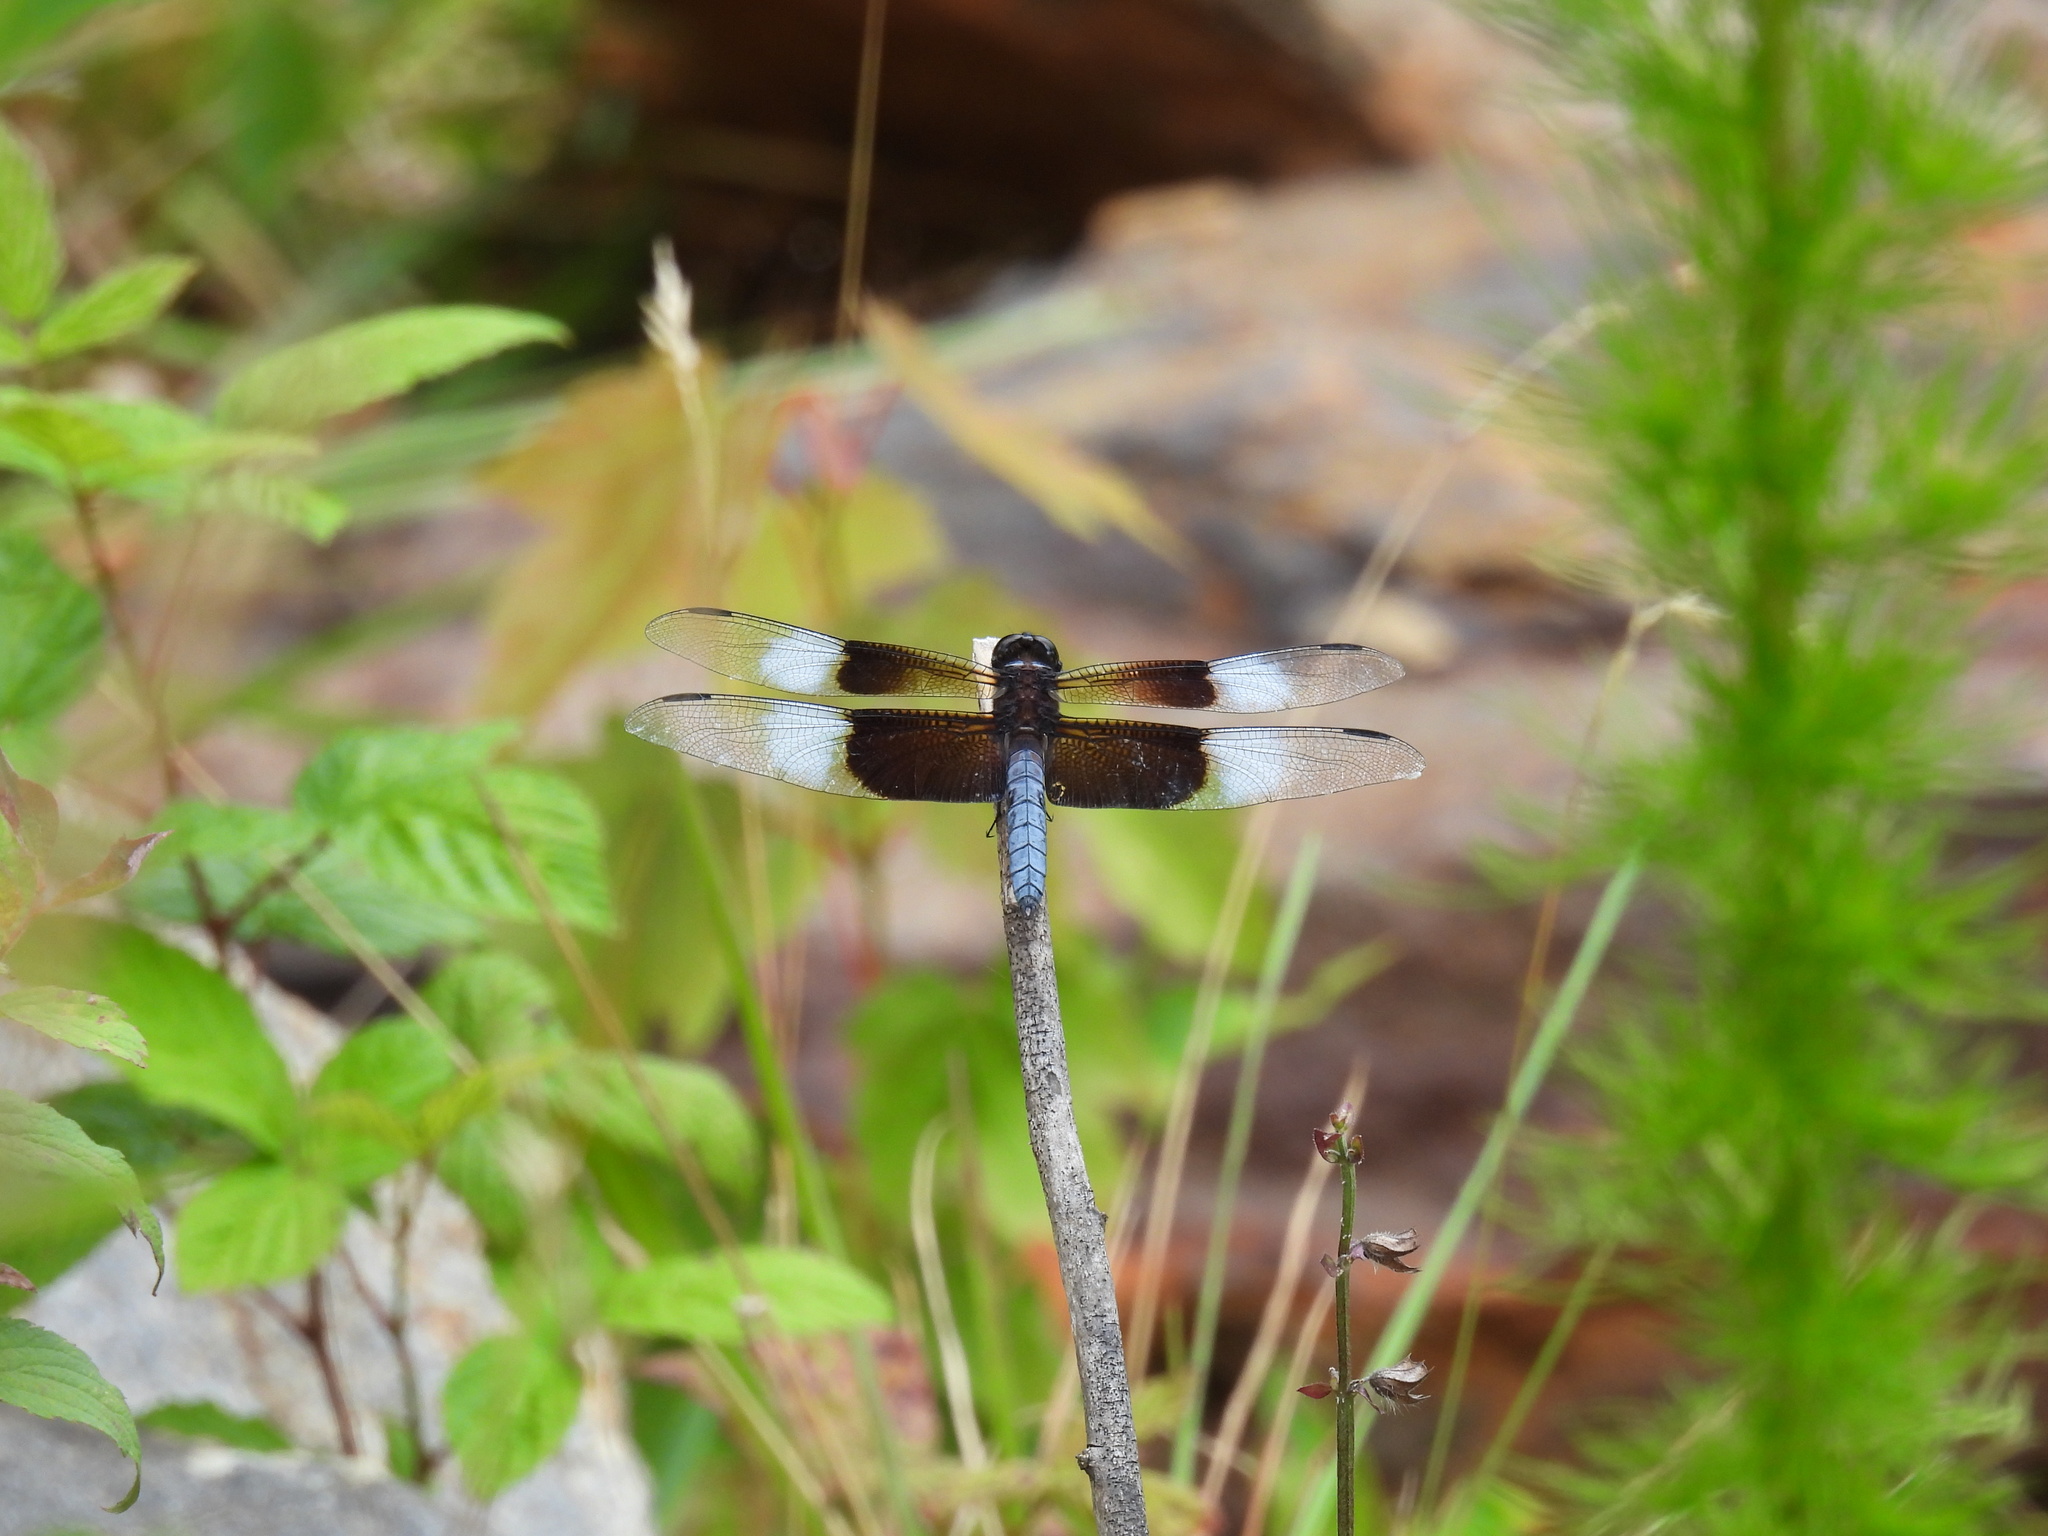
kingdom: Animalia
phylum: Arthropoda
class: Insecta
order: Odonata
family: Libellulidae
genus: Libellula
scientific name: Libellula luctuosa
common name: Widow skimmer
